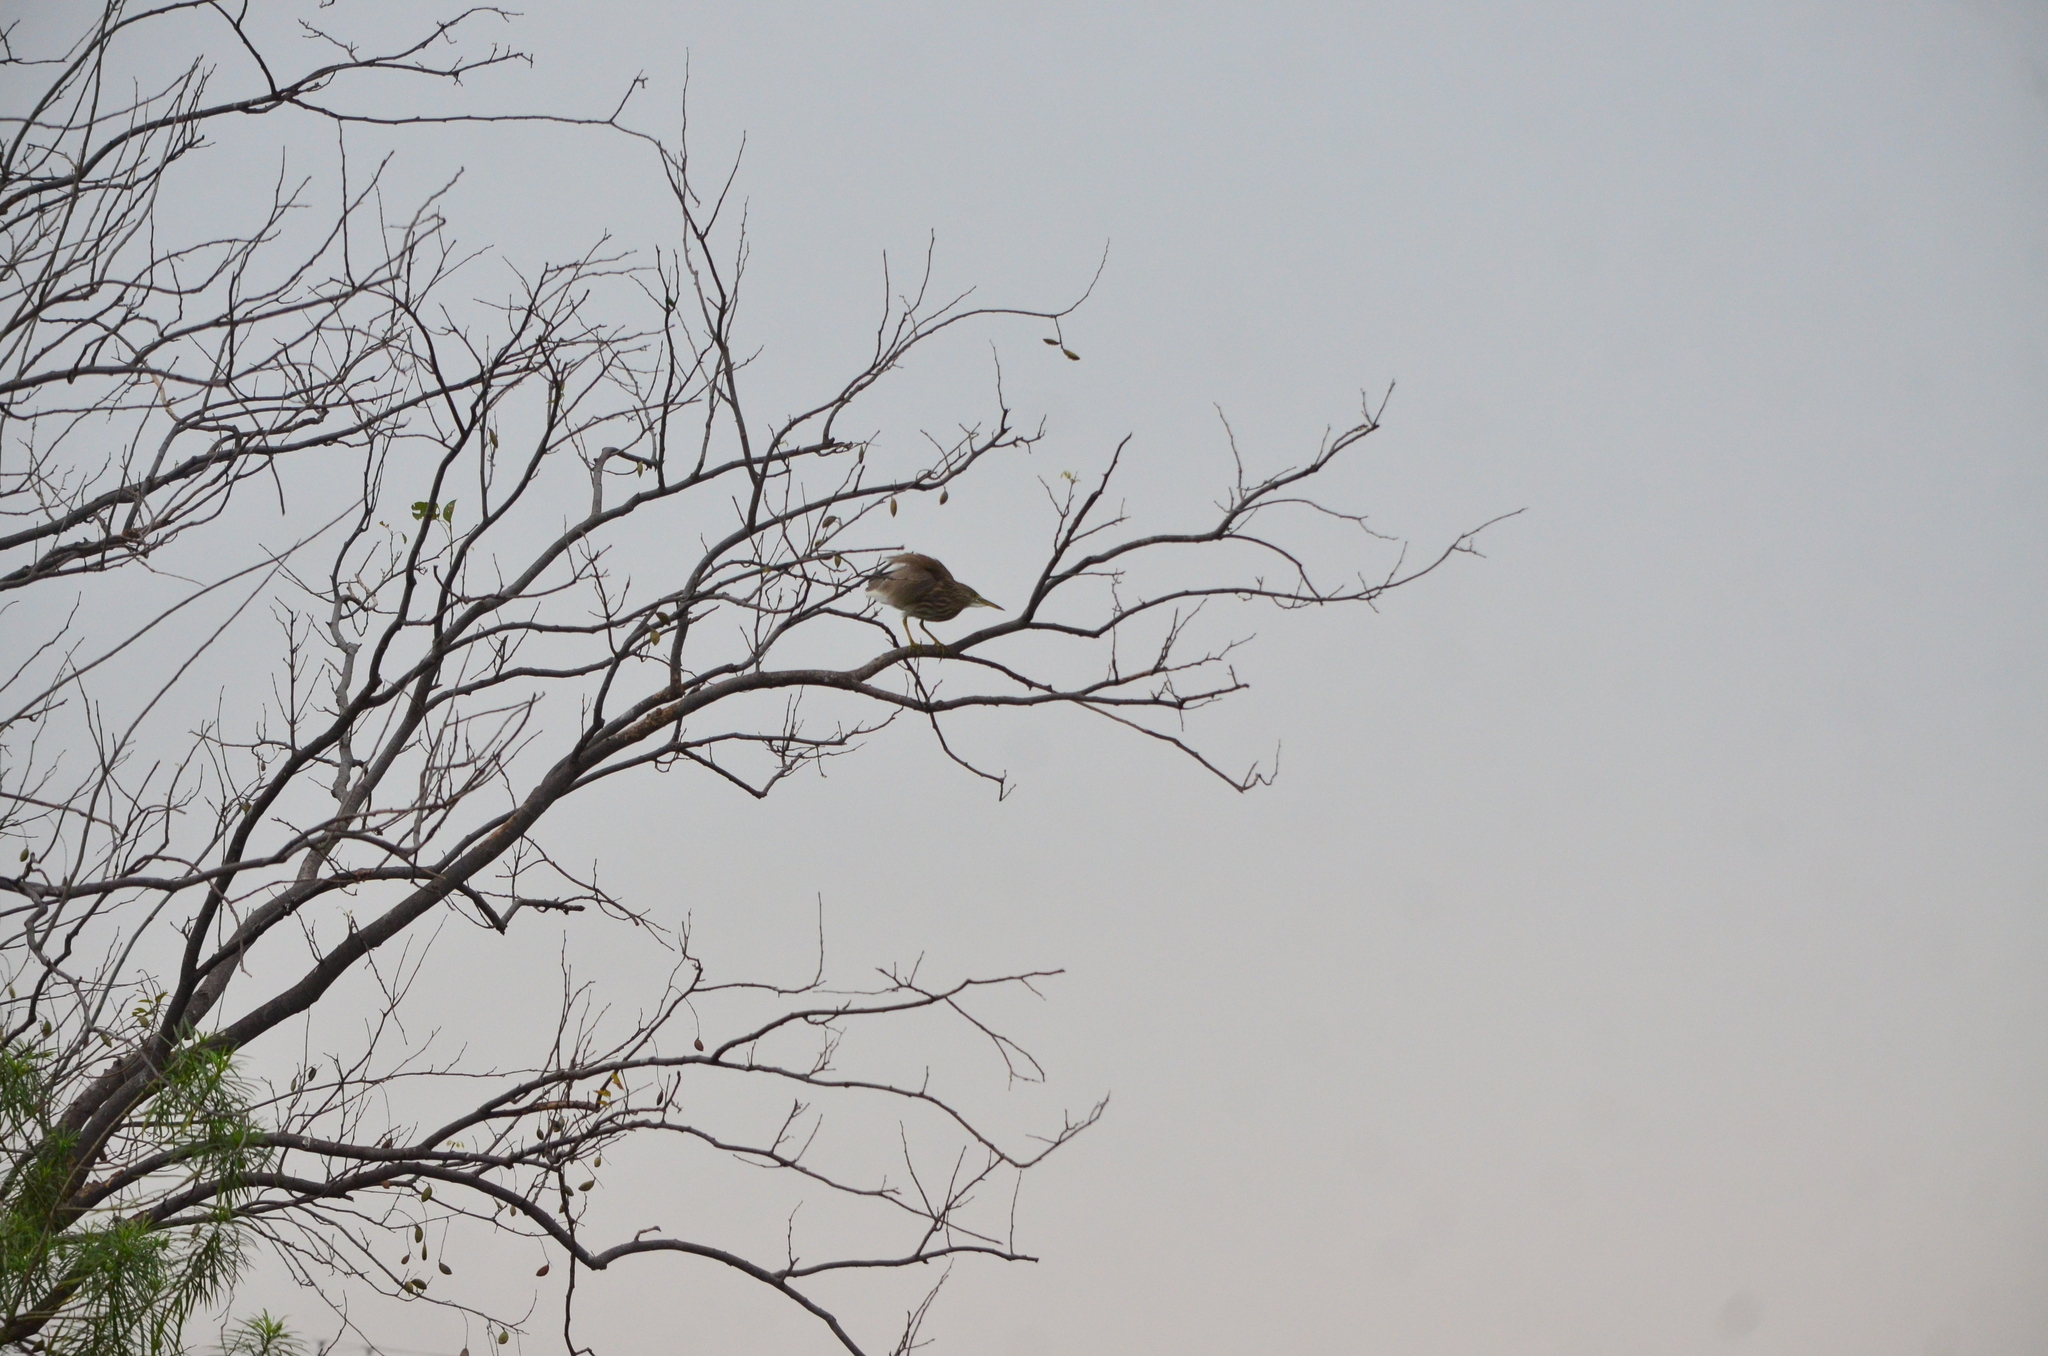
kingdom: Animalia
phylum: Chordata
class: Aves
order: Pelecaniformes
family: Ardeidae
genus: Ardeola
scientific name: Ardeola grayii
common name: Indian pond heron
